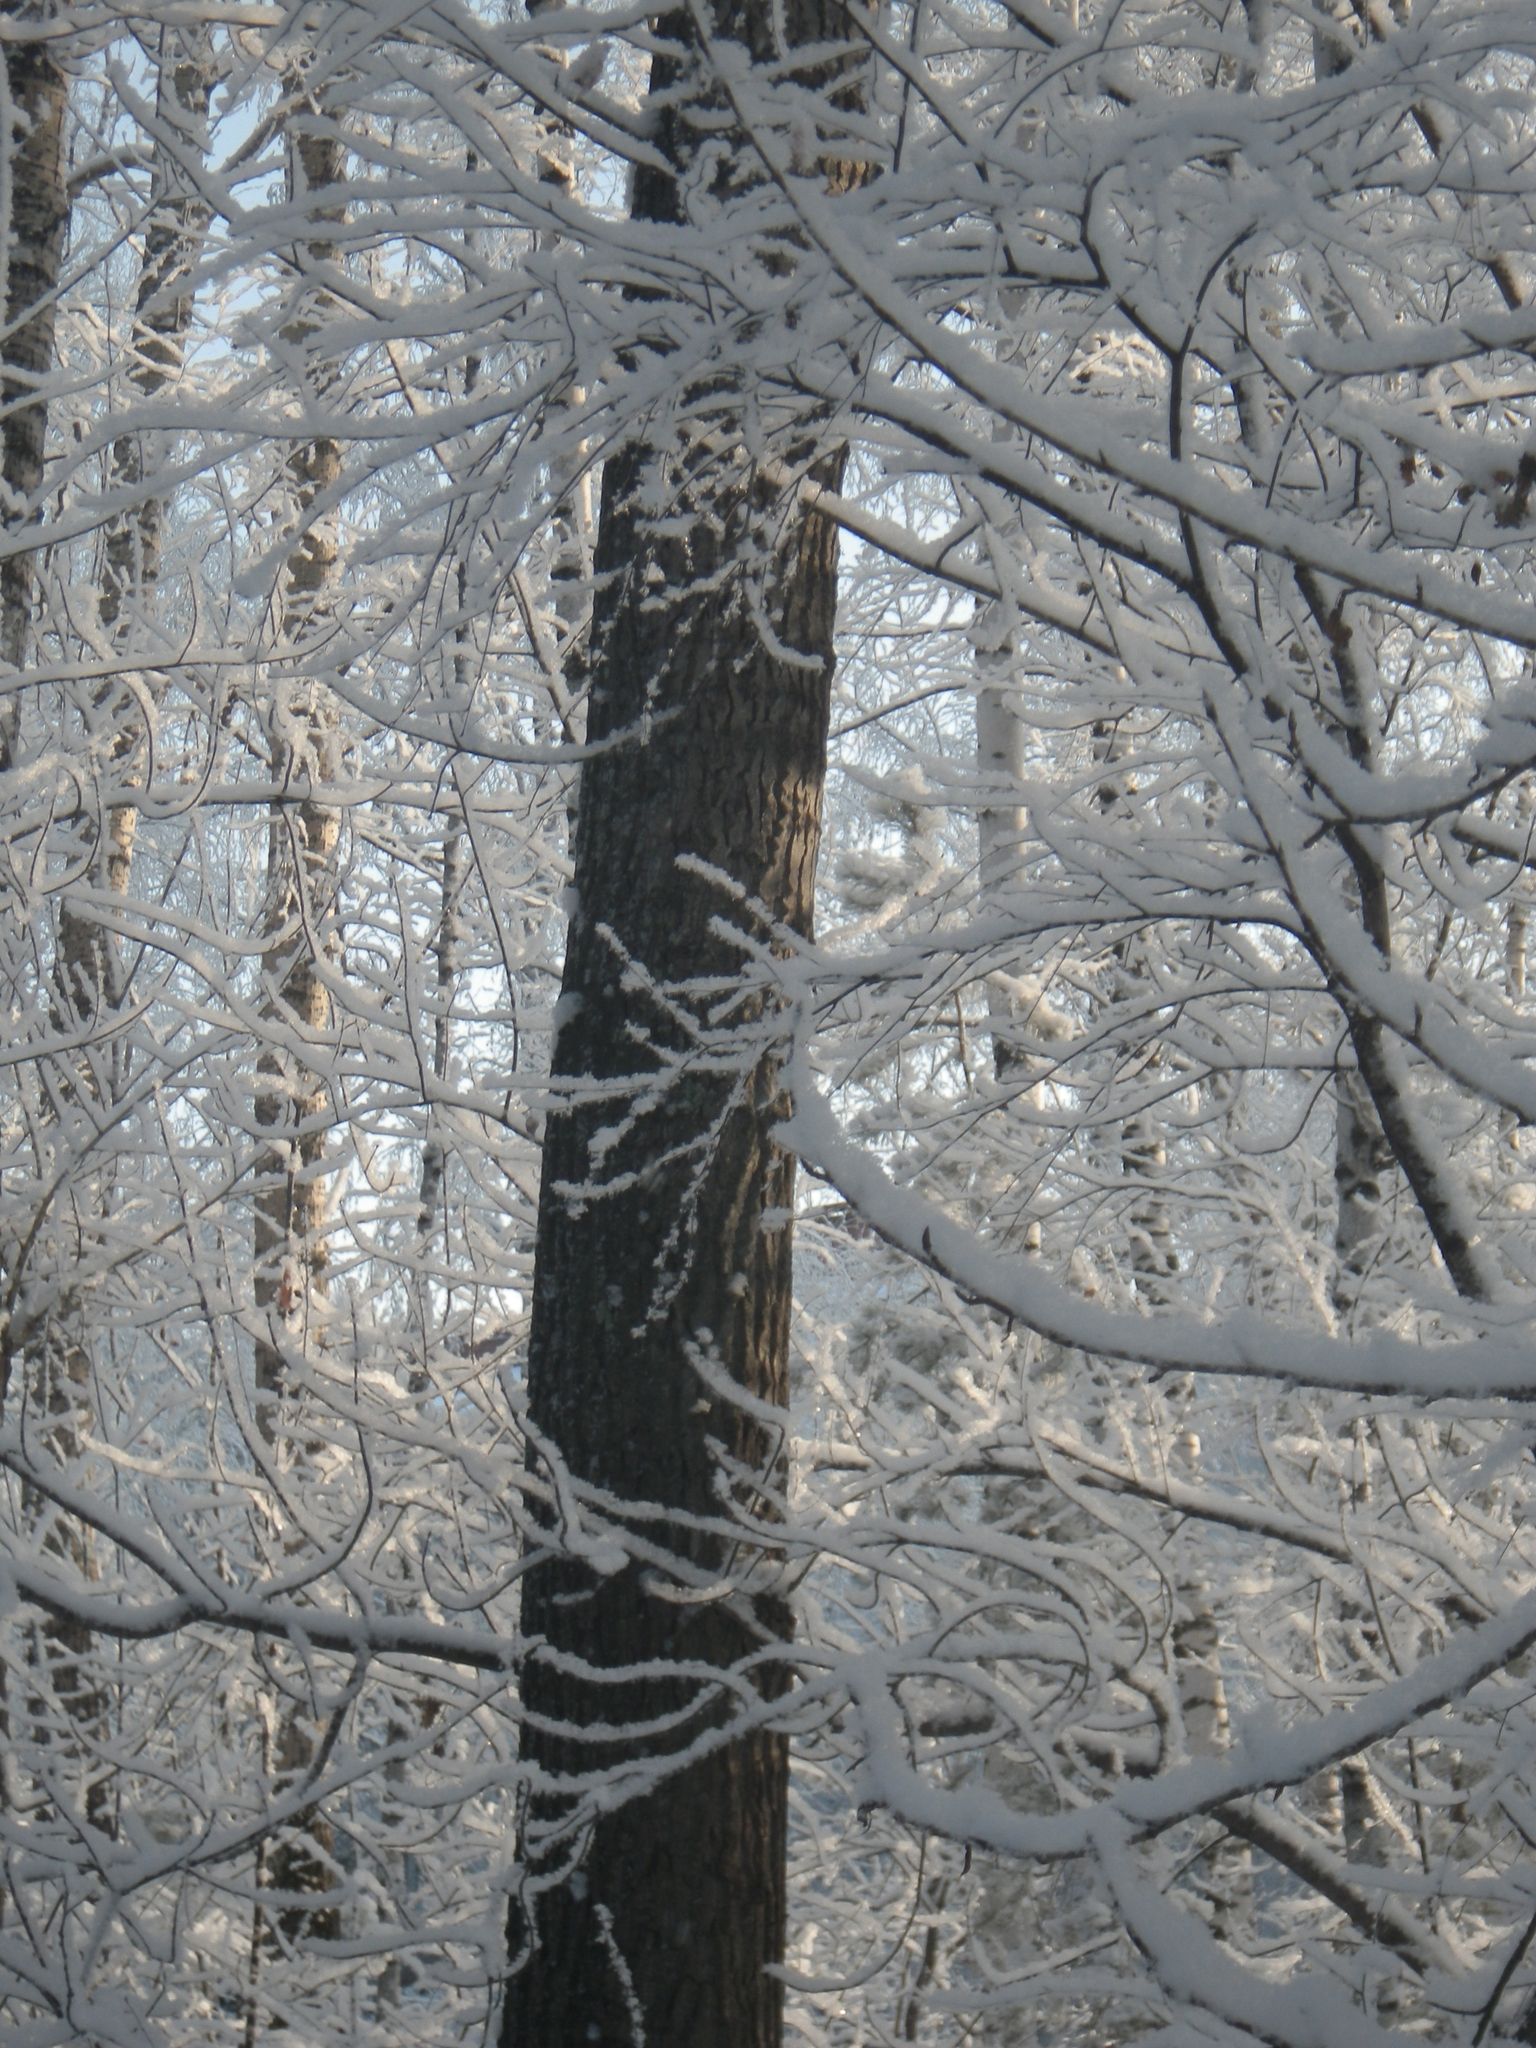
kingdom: Plantae
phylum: Tracheophyta
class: Magnoliopsida
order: Malpighiales
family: Salicaceae
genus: Populus
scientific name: Populus tremula
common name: European aspen
